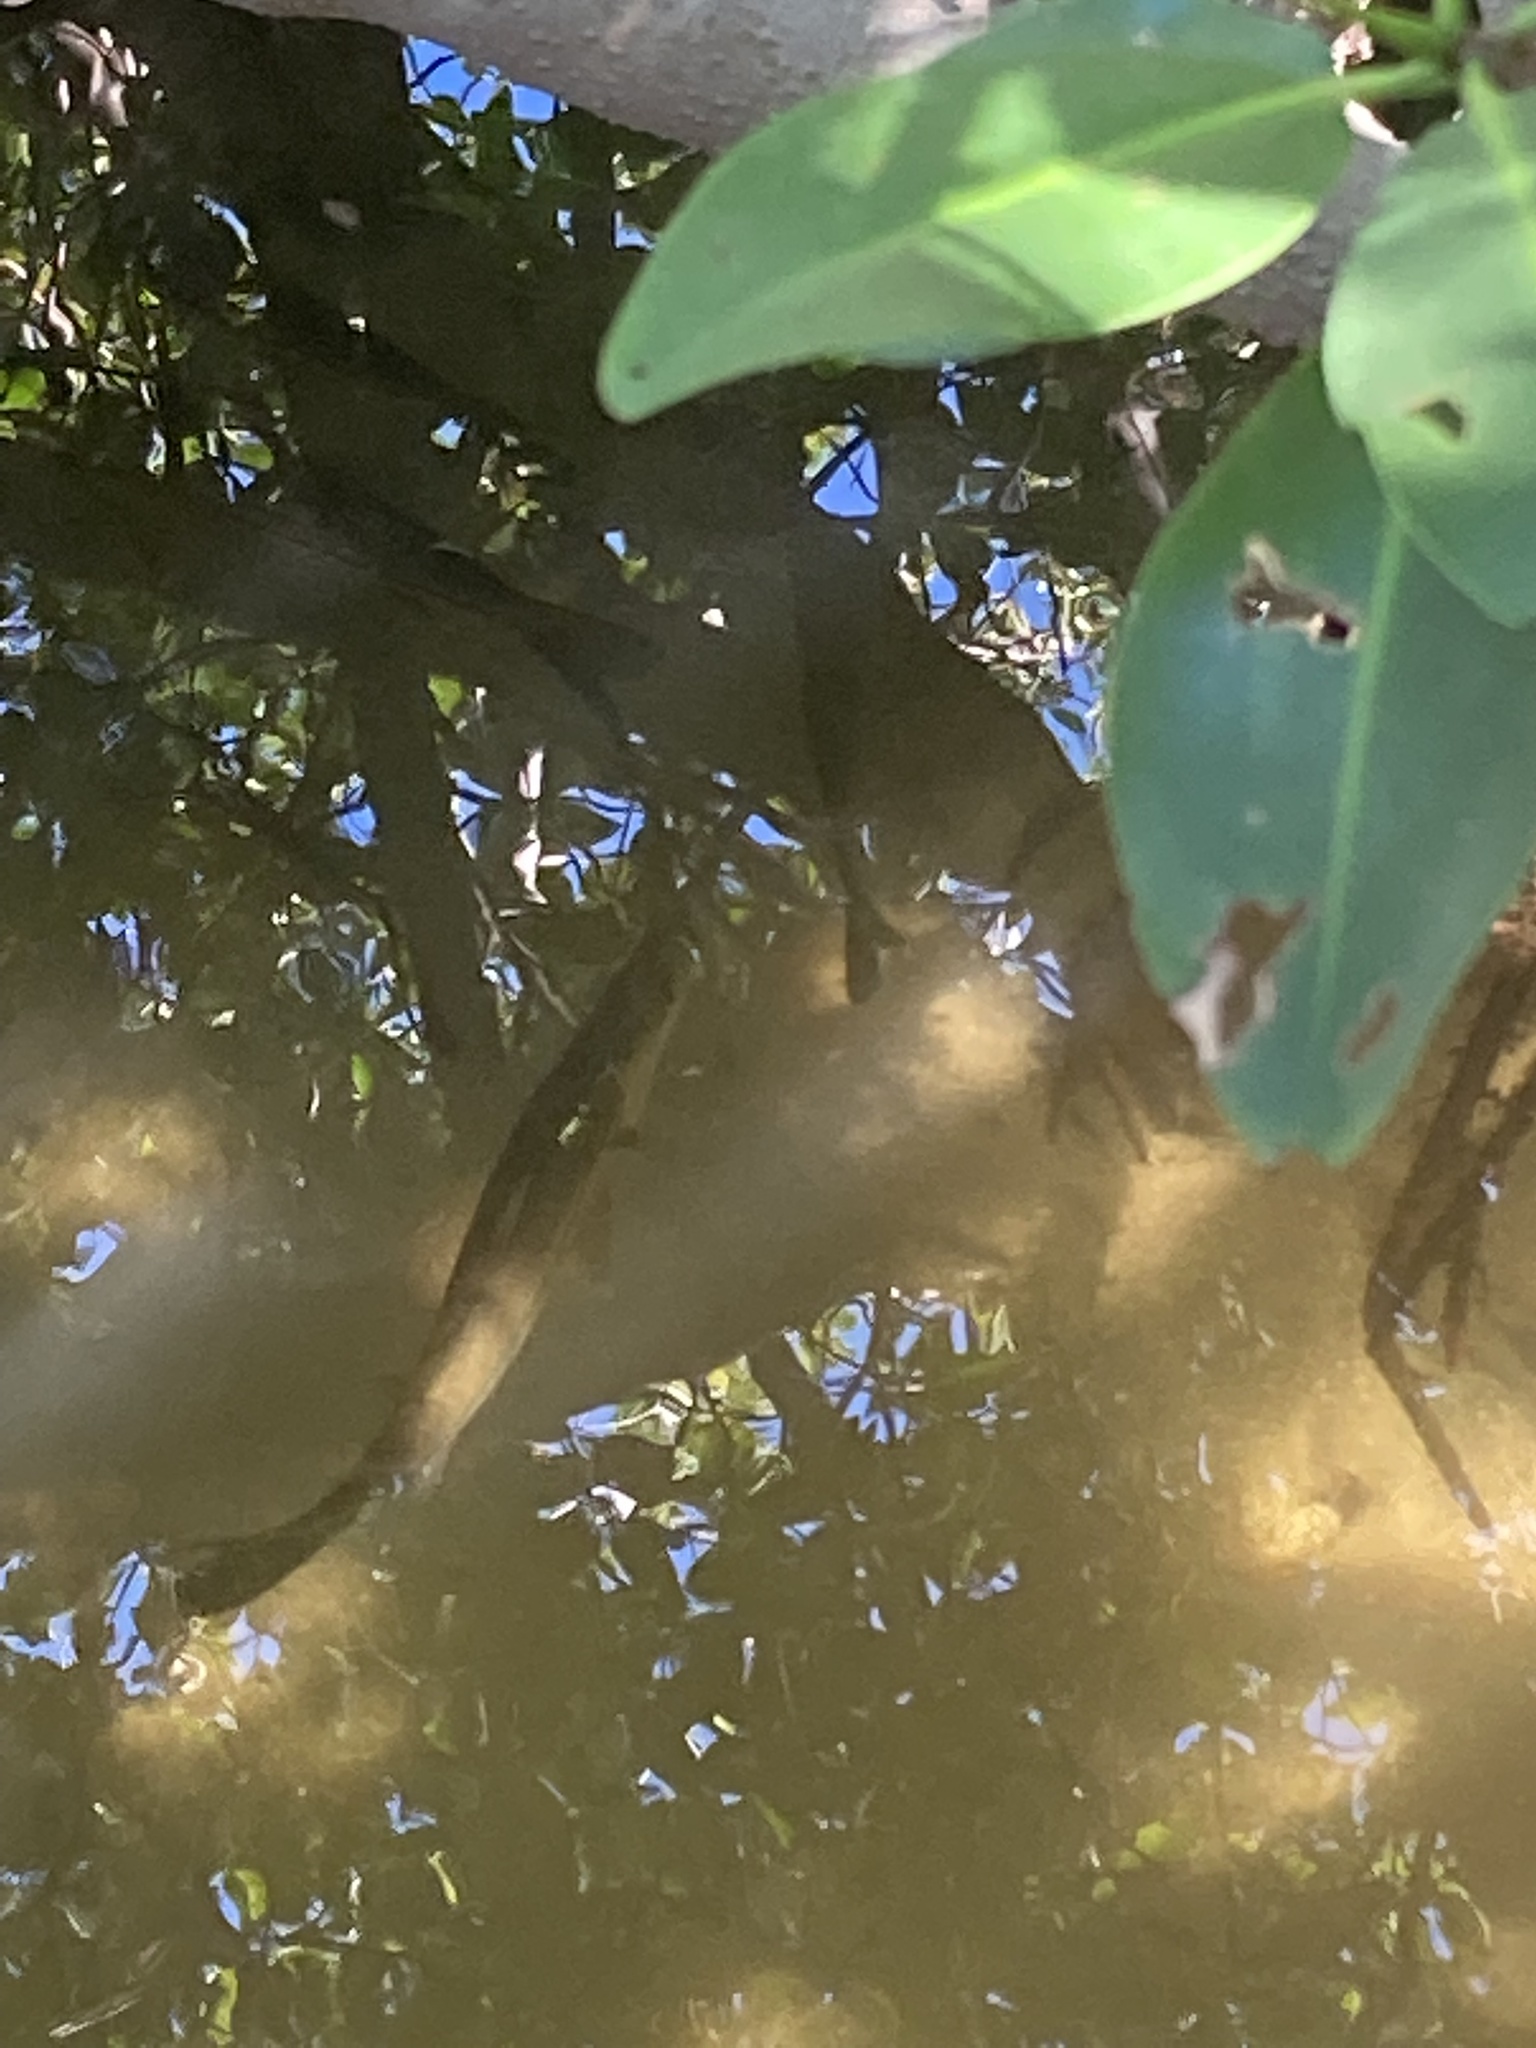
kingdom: Animalia
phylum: Chordata
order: Perciformes
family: Centropomidae
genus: Centropomus
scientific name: Centropomus undecimalis
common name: Snook
